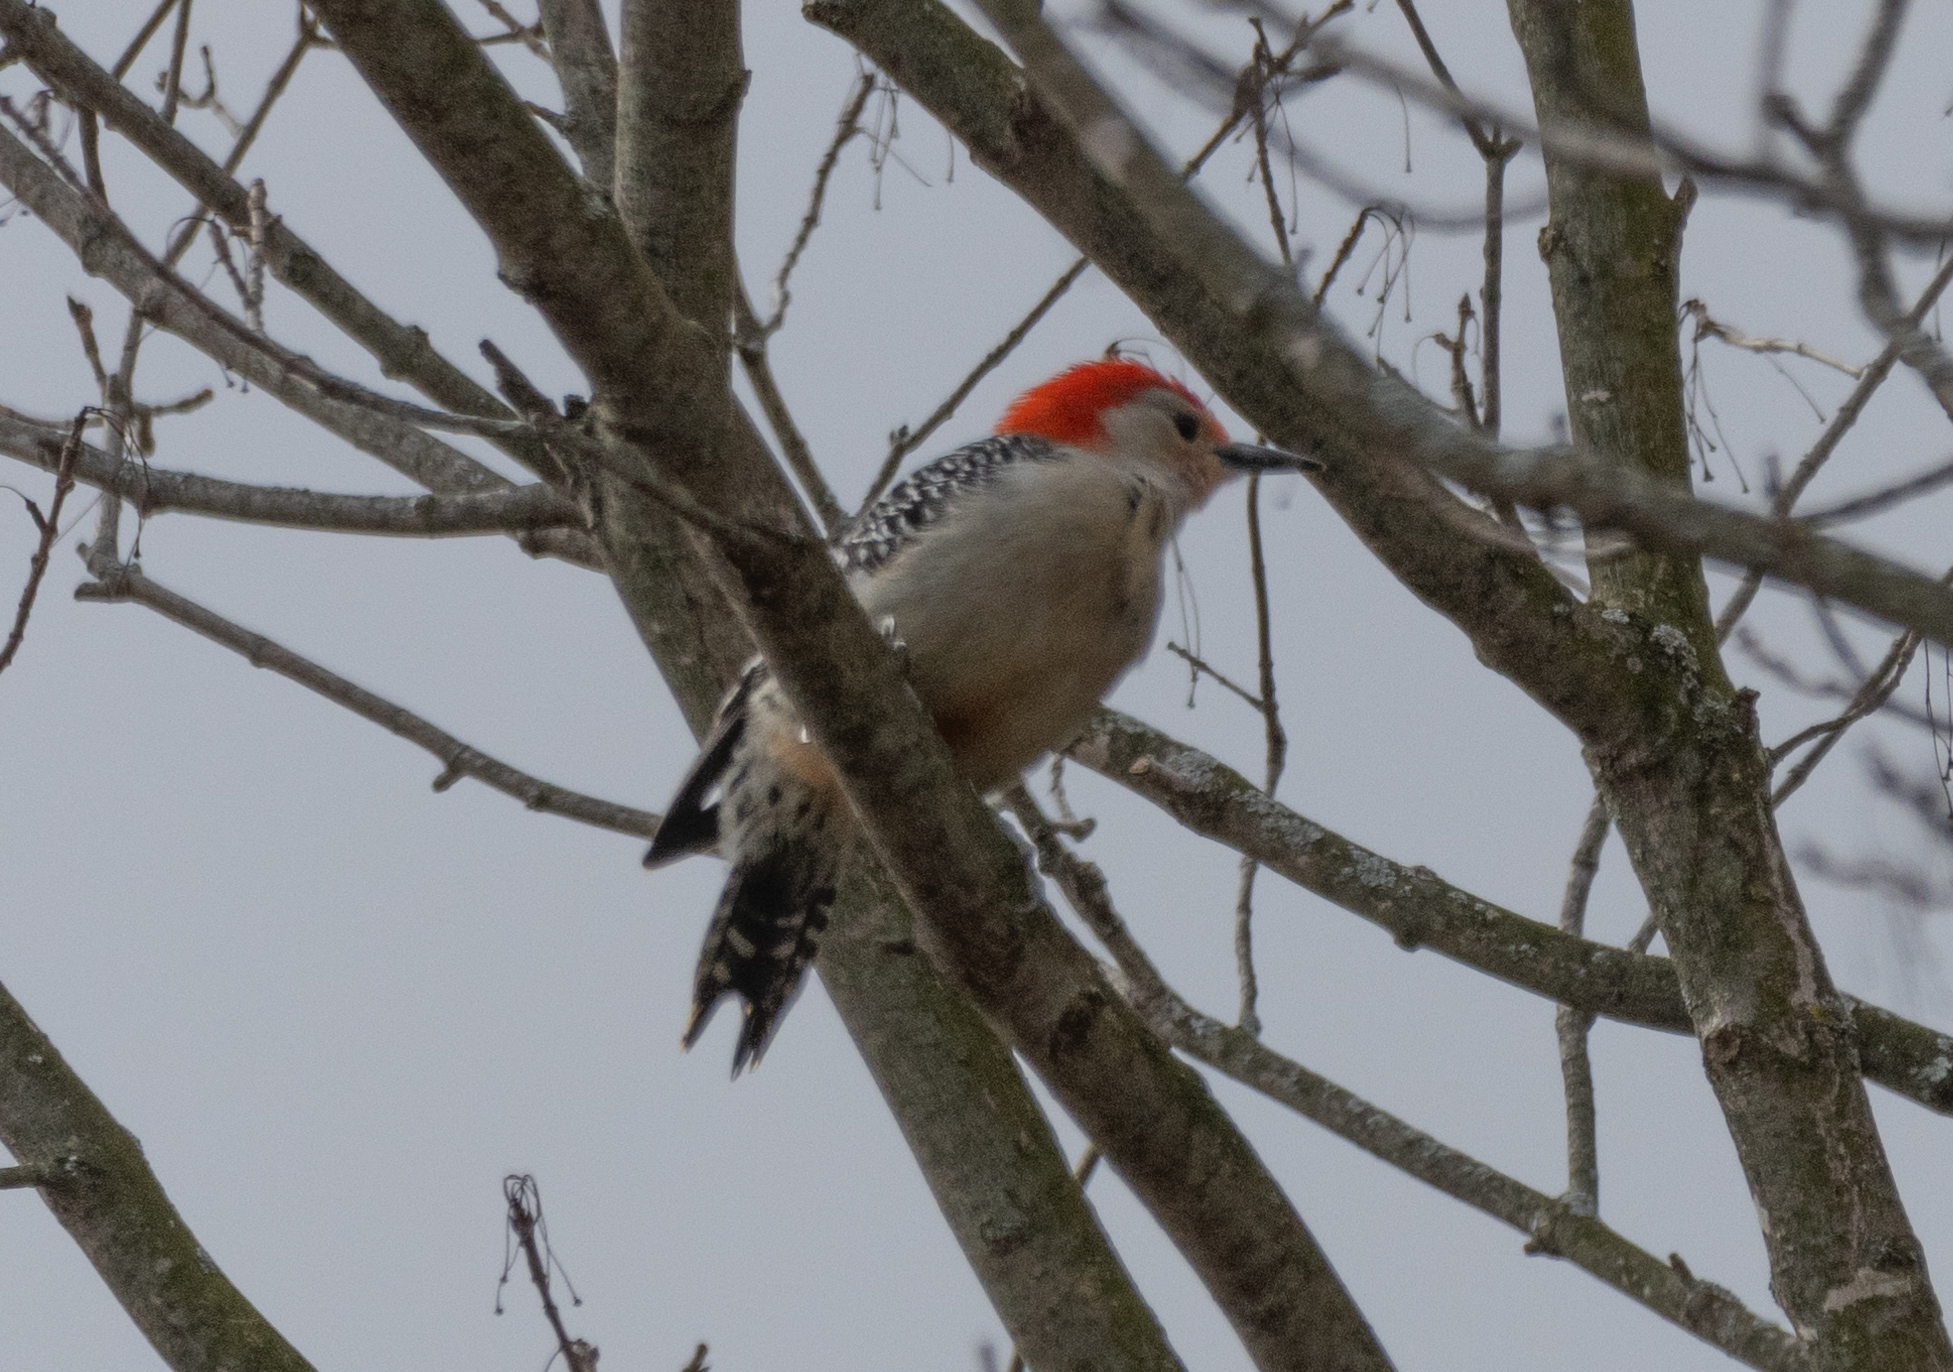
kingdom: Animalia
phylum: Chordata
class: Aves
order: Piciformes
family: Picidae
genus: Melanerpes
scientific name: Melanerpes carolinus
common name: Red-bellied woodpecker
